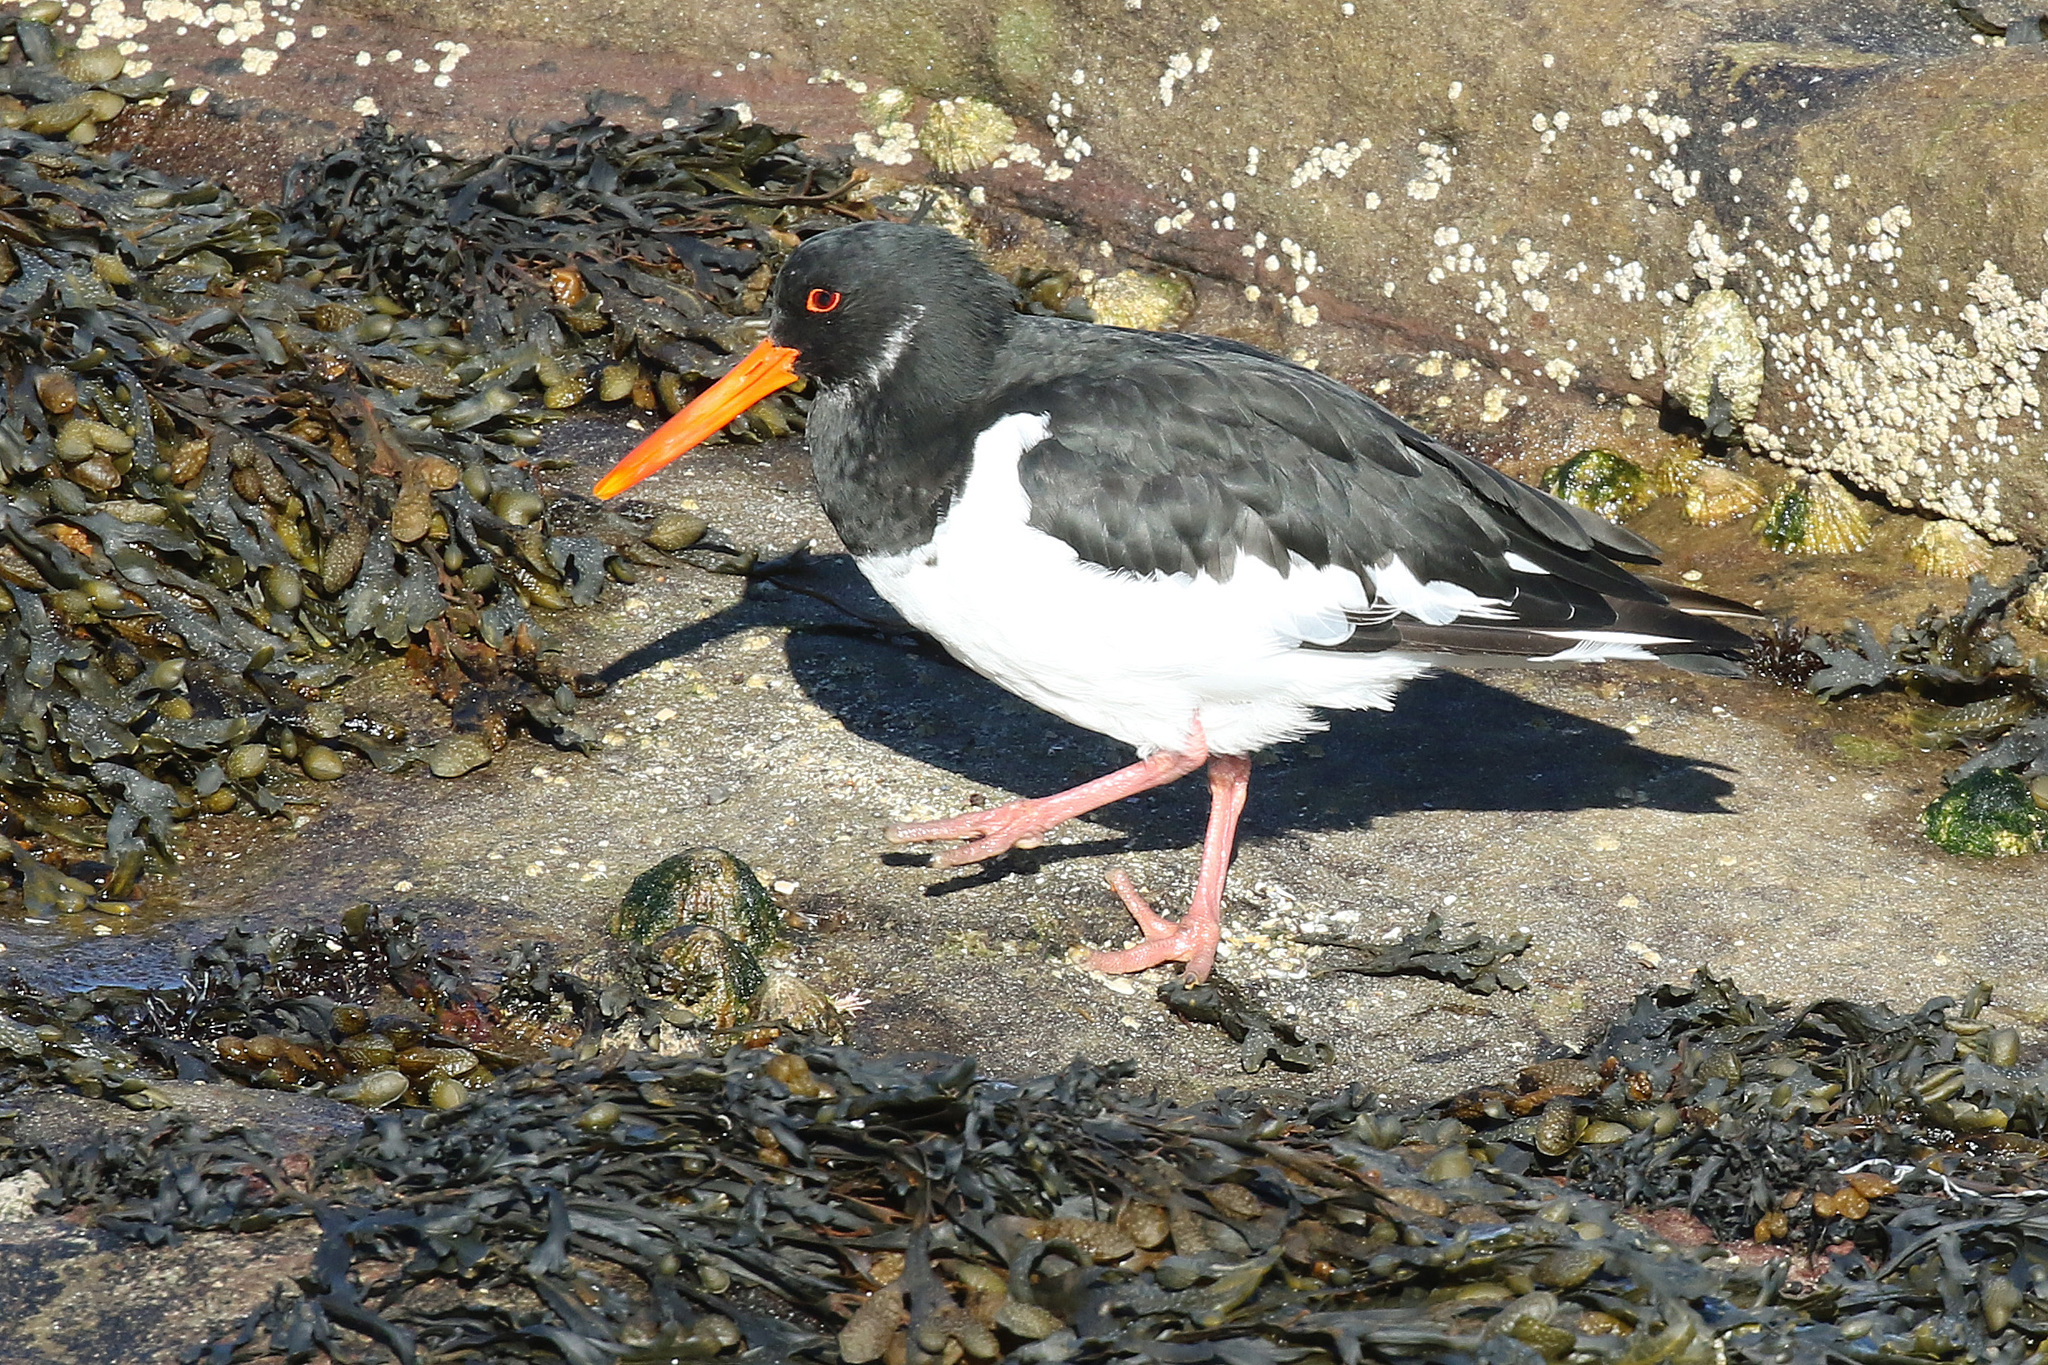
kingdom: Animalia
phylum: Chordata
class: Aves
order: Charadriiformes
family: Haematopodidae
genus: Haematopus
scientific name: Haematopus ostralegus
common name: Eurasian oystercatcher
